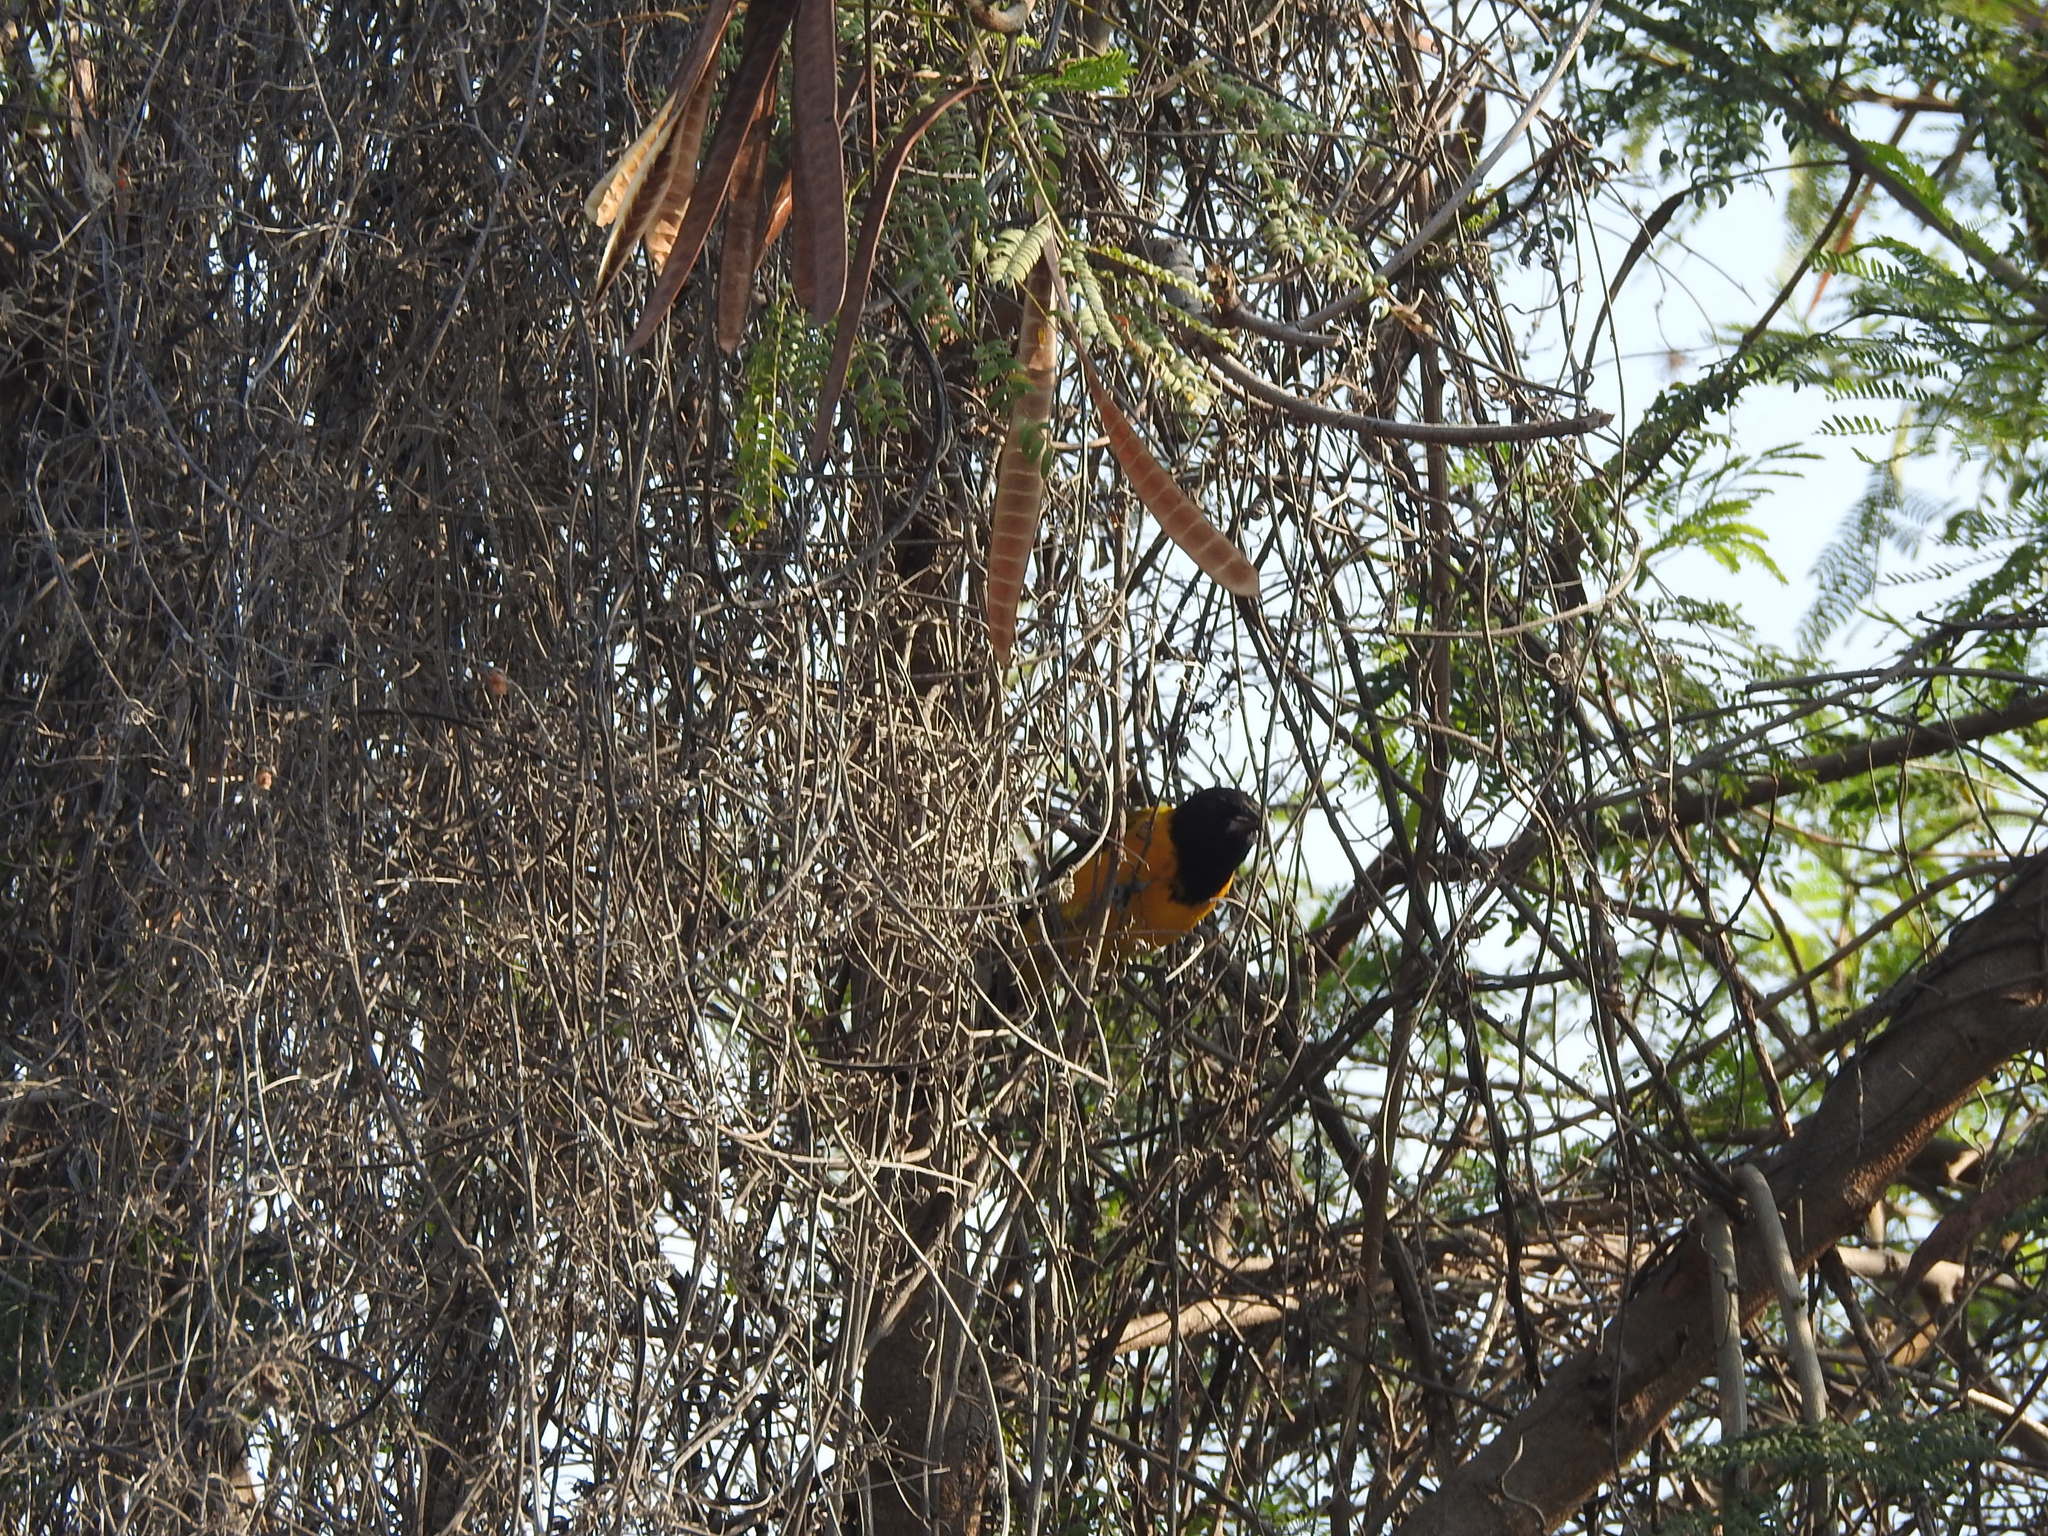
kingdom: Animalia
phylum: Chordata
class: Aves
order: Passeriformes
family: Icteridae
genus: Icterus
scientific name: Icterus graduacauda
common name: Audubon's oriole
